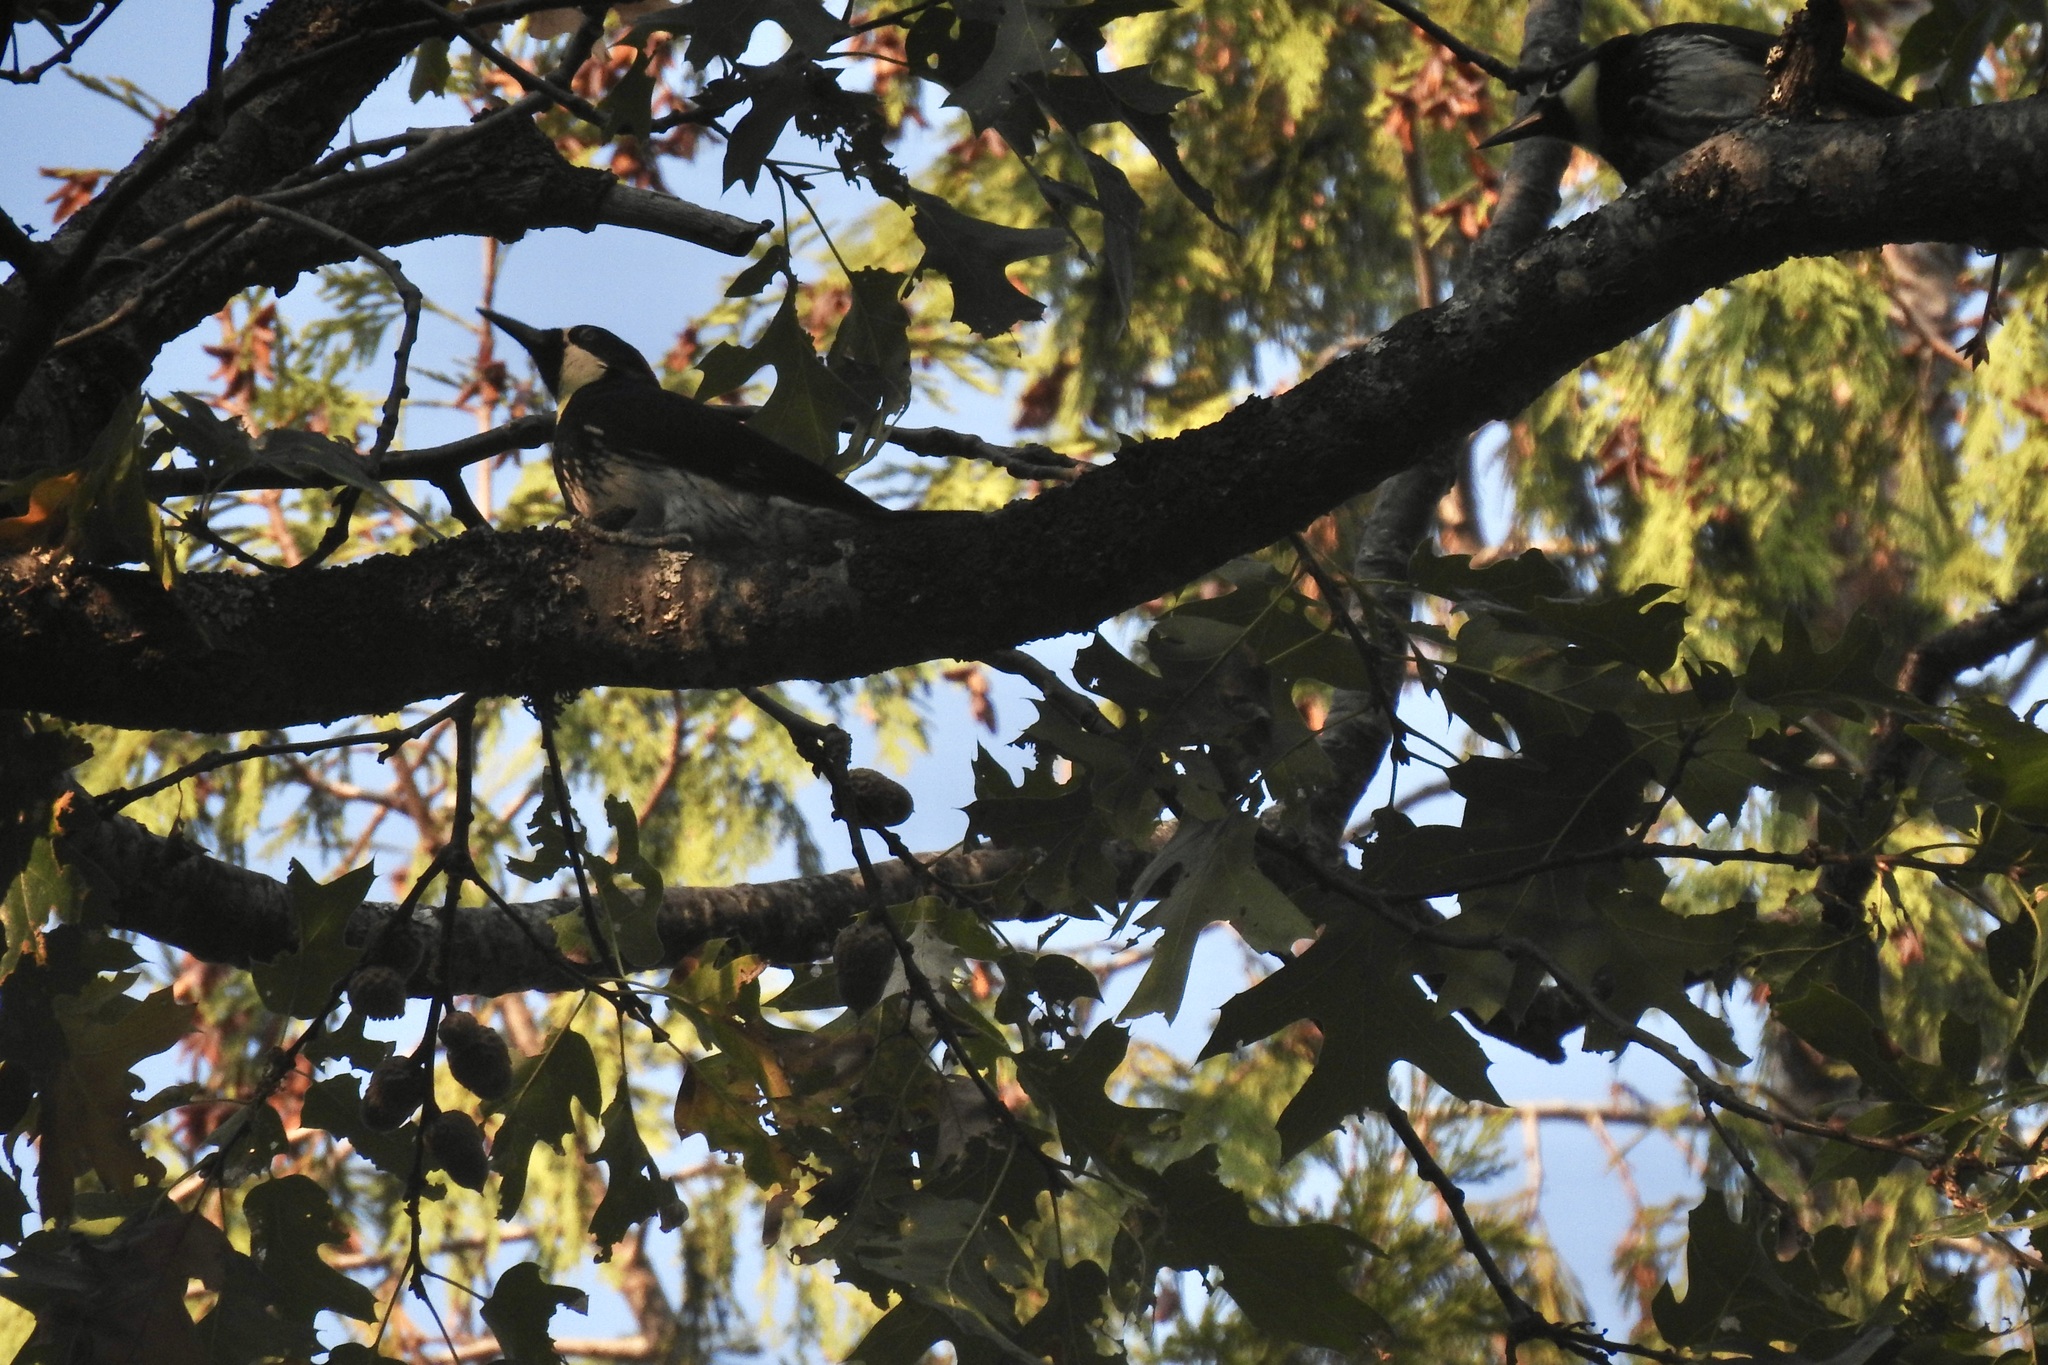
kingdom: Animalia
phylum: Chordata
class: Aves
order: Piciformes
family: Picidae
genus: Melanerpes
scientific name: Melanerpes formicivorus
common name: Acorn woodpecker
